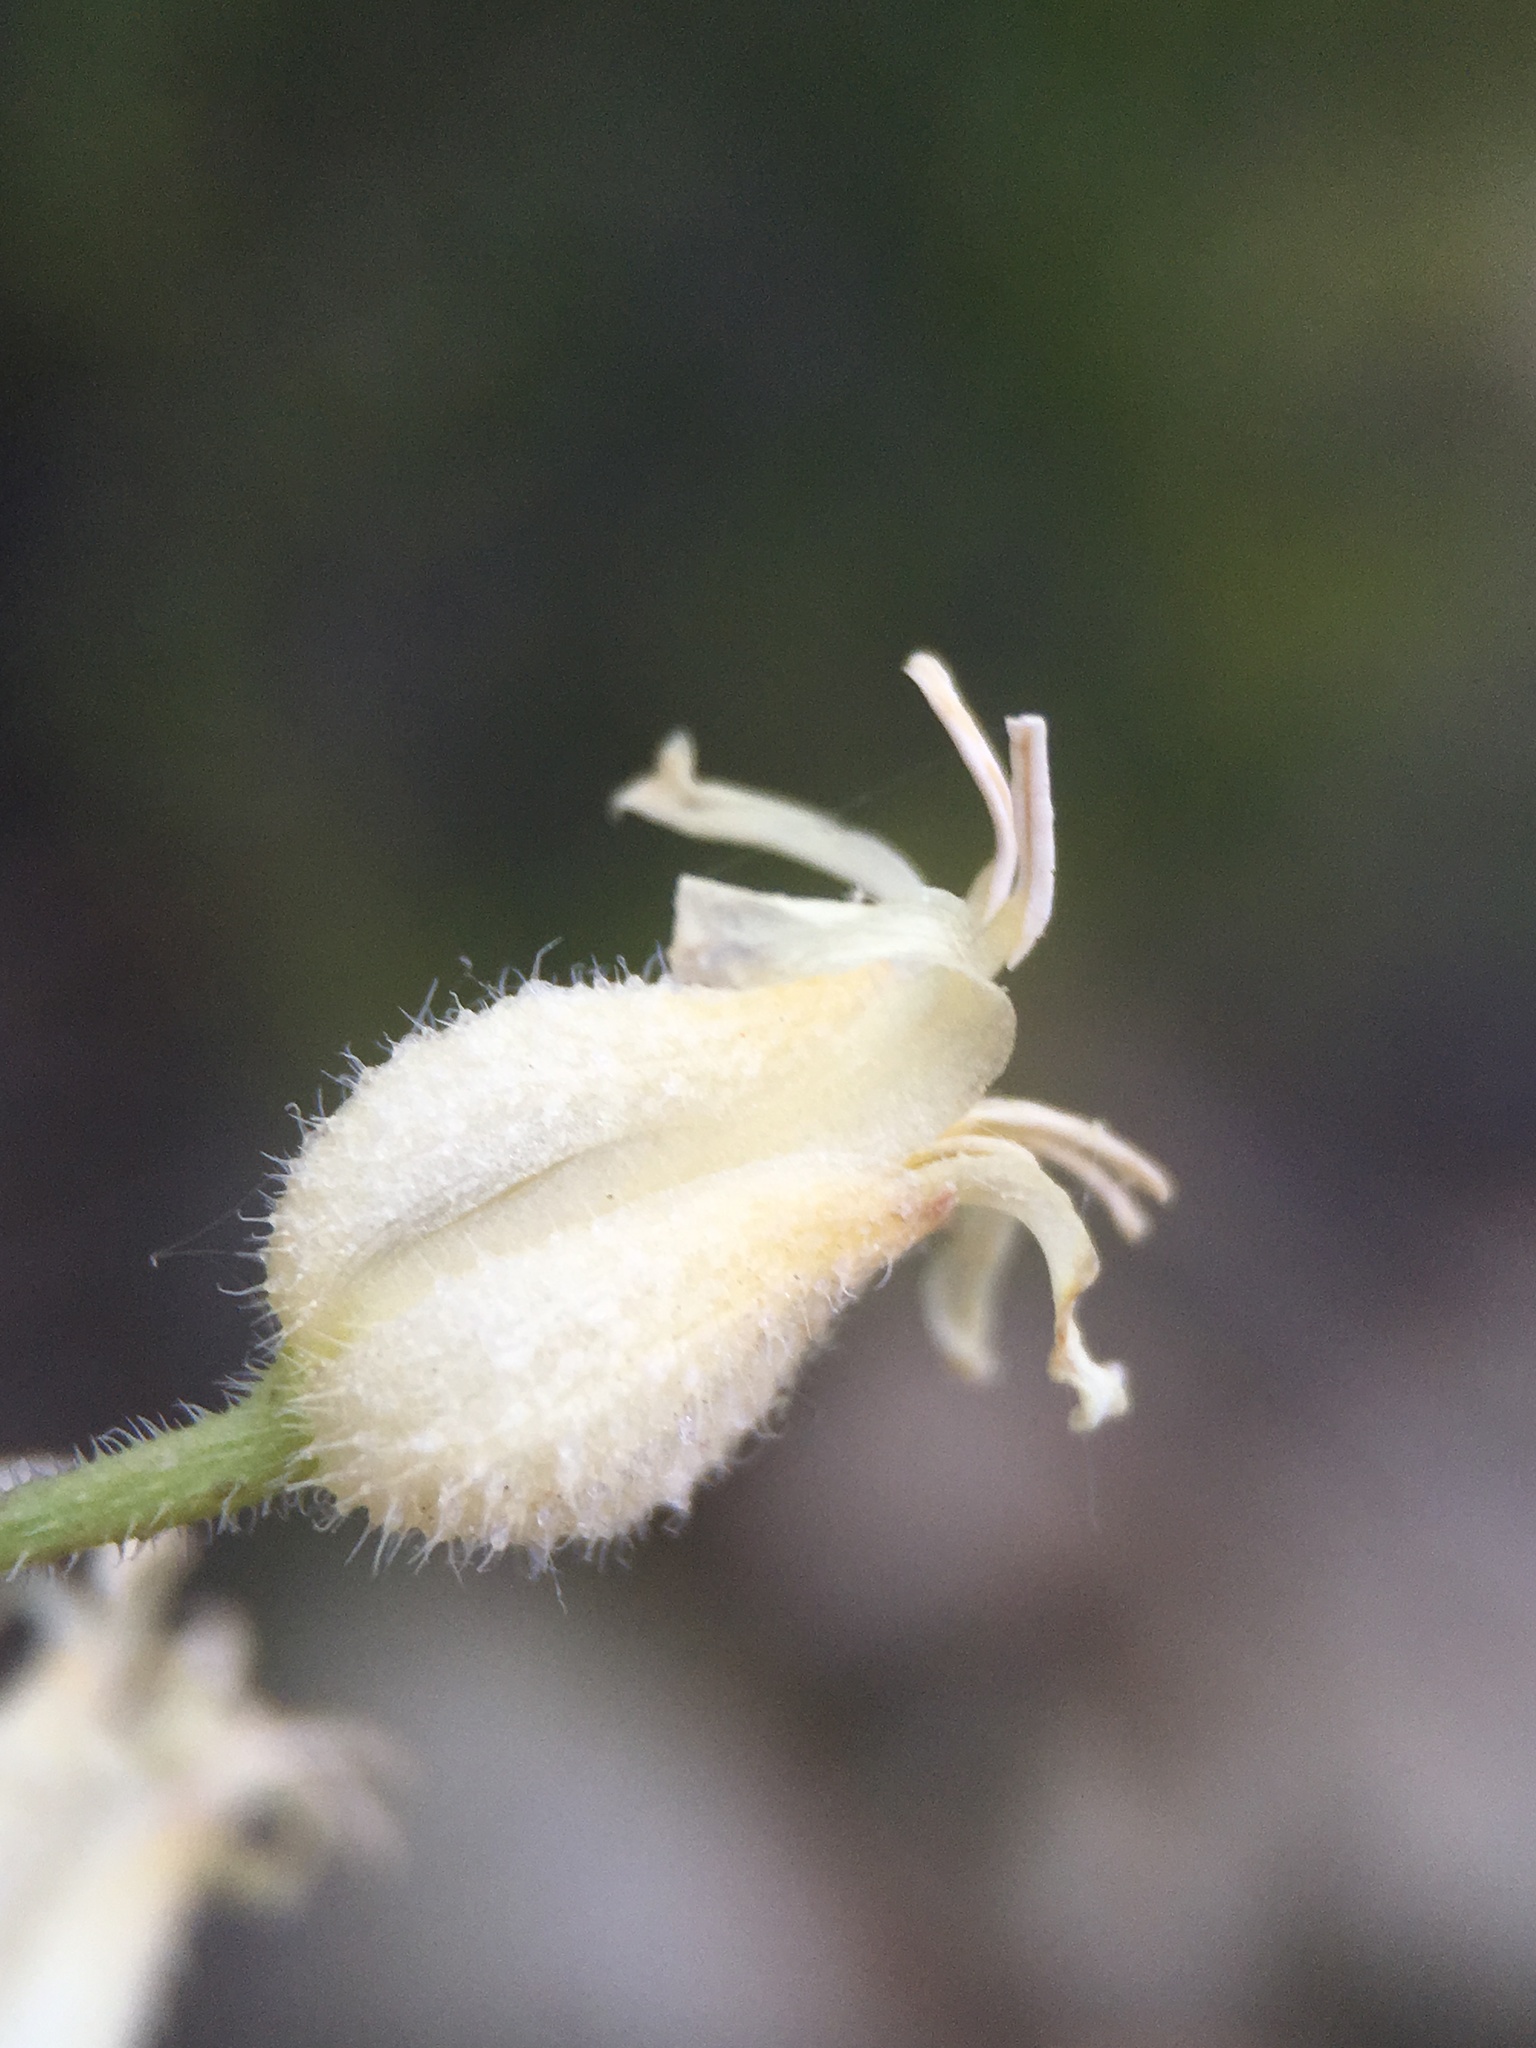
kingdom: Plantae
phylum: Tracheophyta
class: Magnoliopsida
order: Brassicales
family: Brassicaceae
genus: Streptanthus
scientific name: Streptanthus hallii
